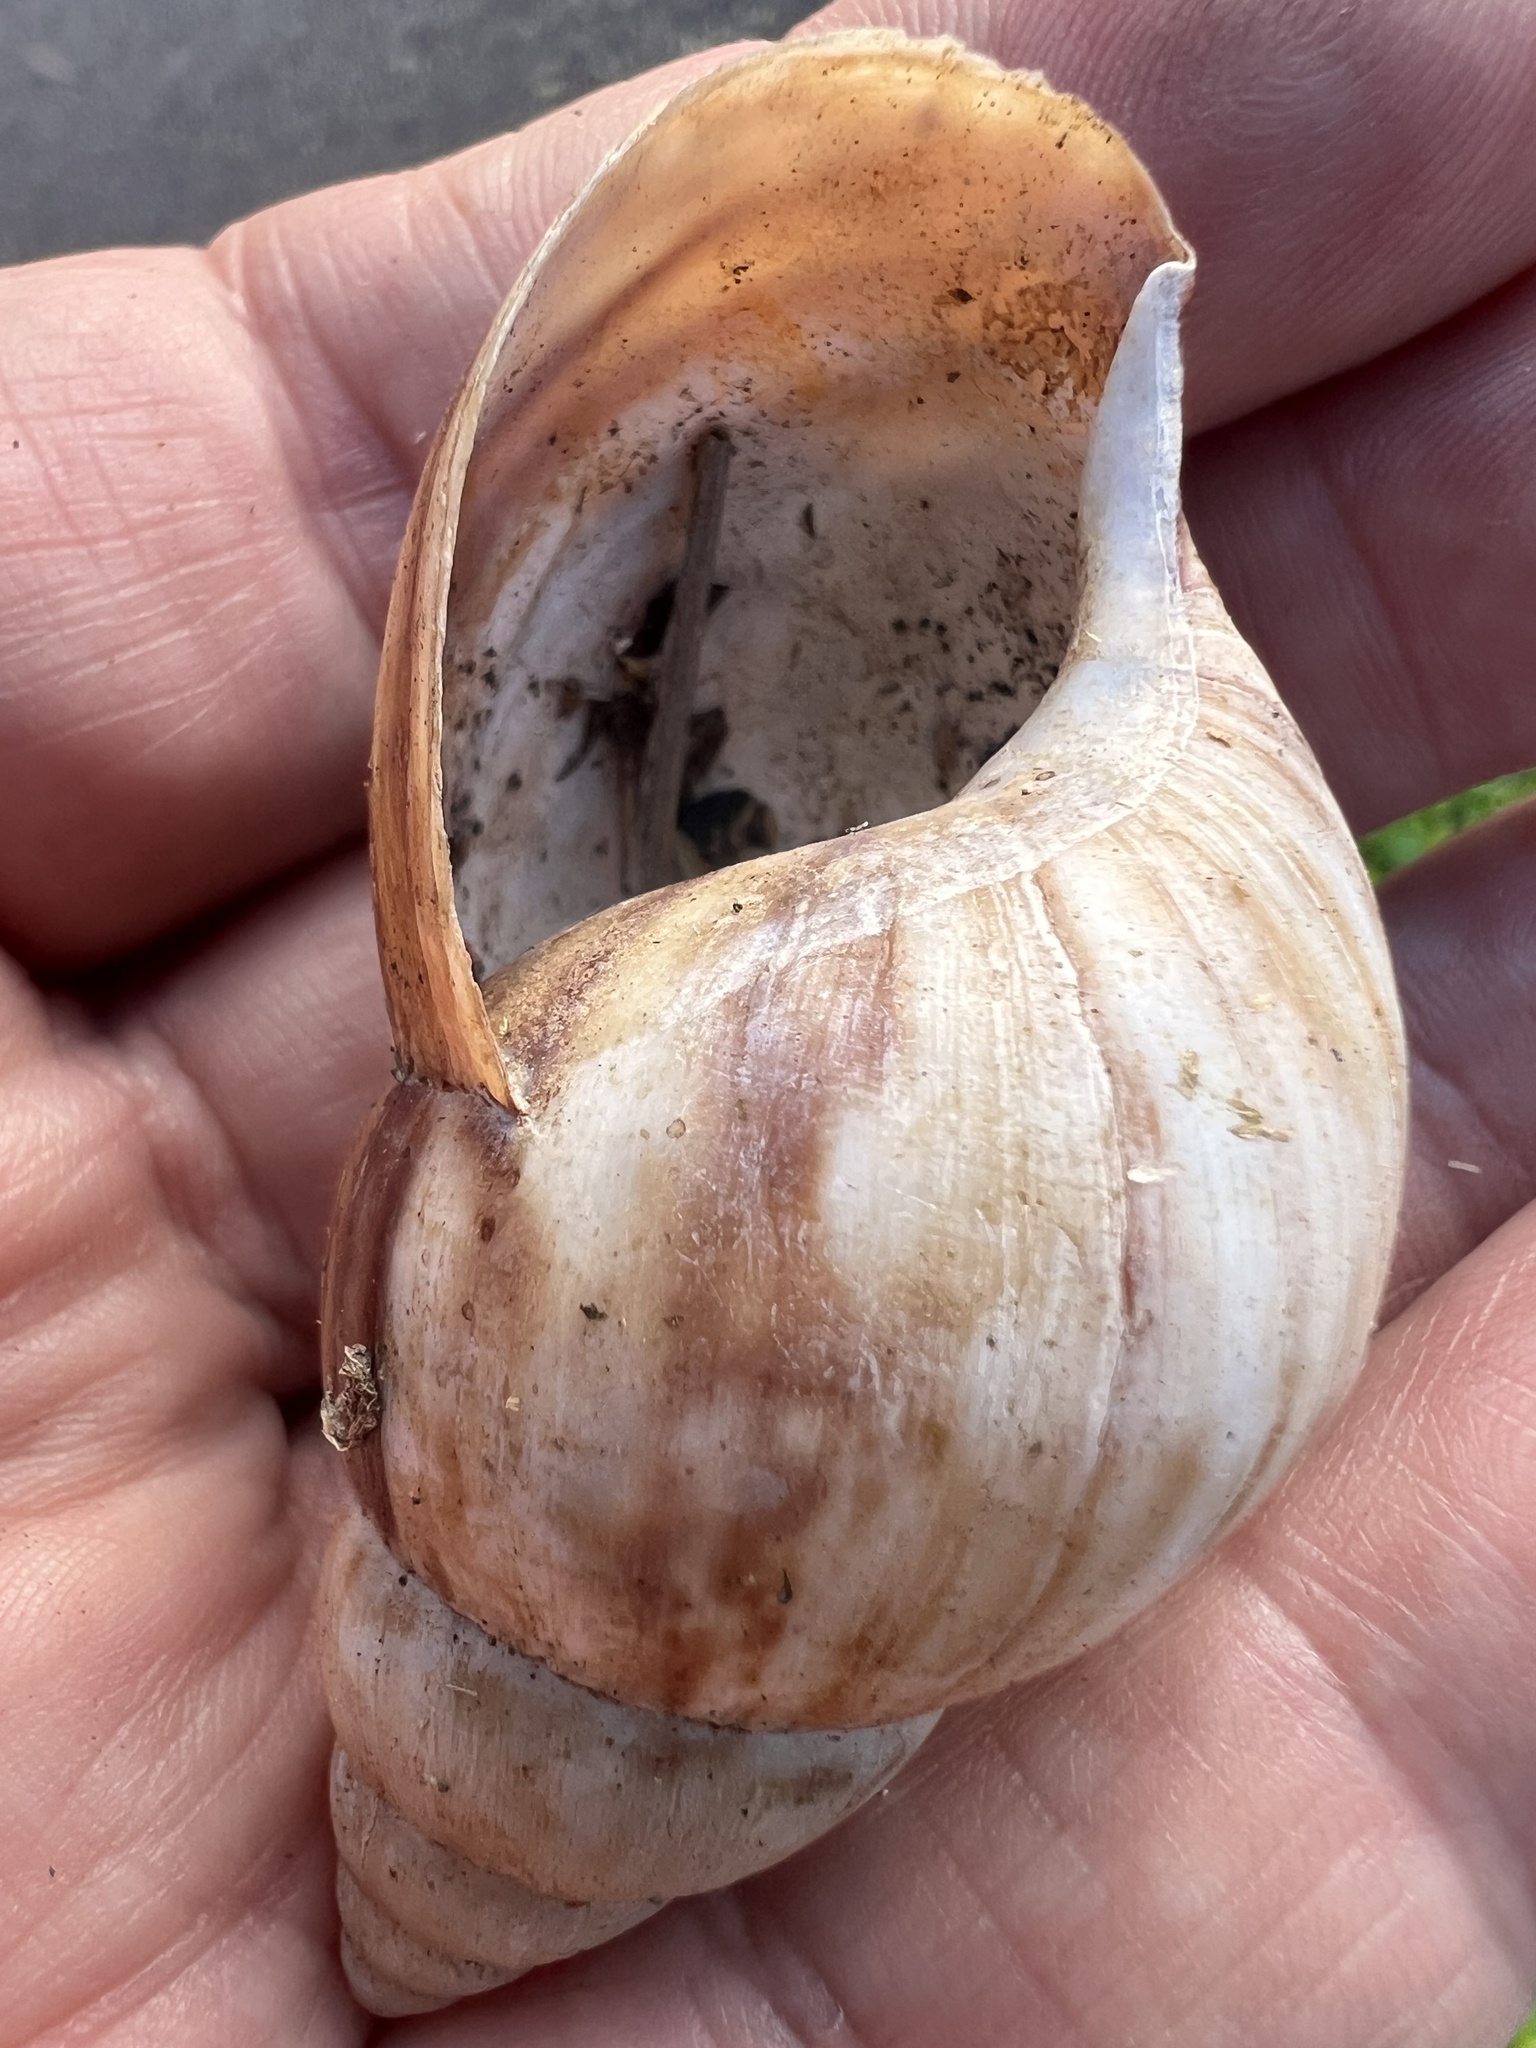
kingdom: Animalia
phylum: Mollusca
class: Gastropoda
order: Stylommatophora
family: Achatinidae
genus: Lissachatina
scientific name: Lissachatina fulica
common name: Giant african snail
